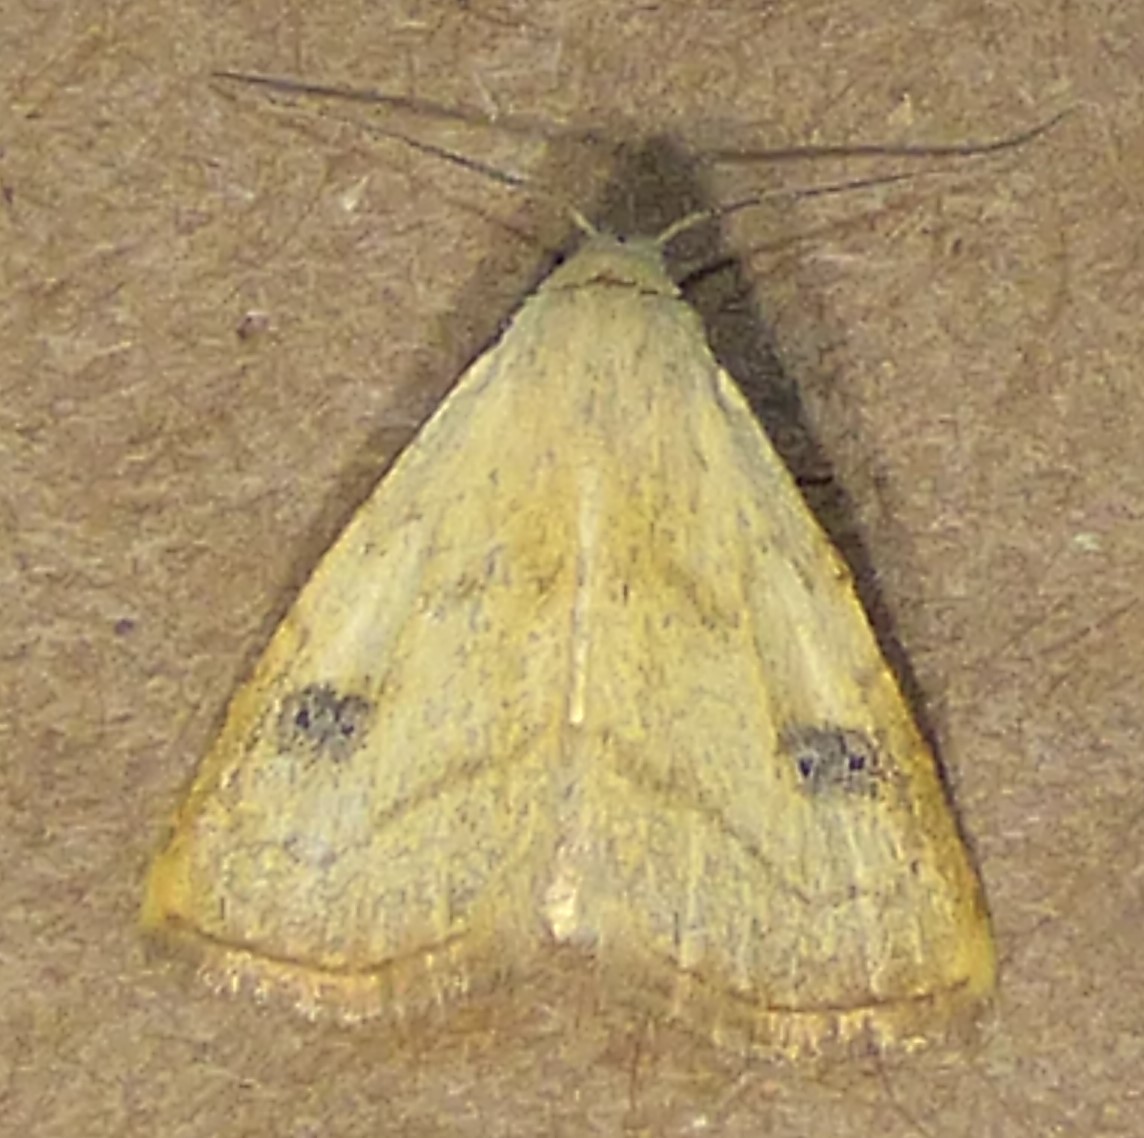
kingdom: Animalia
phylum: Arthropoda
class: Insecta
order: Lepidoptera
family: Erebidae
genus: Rivula
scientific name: Rivula propinqualis
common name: Spotted grass moth
